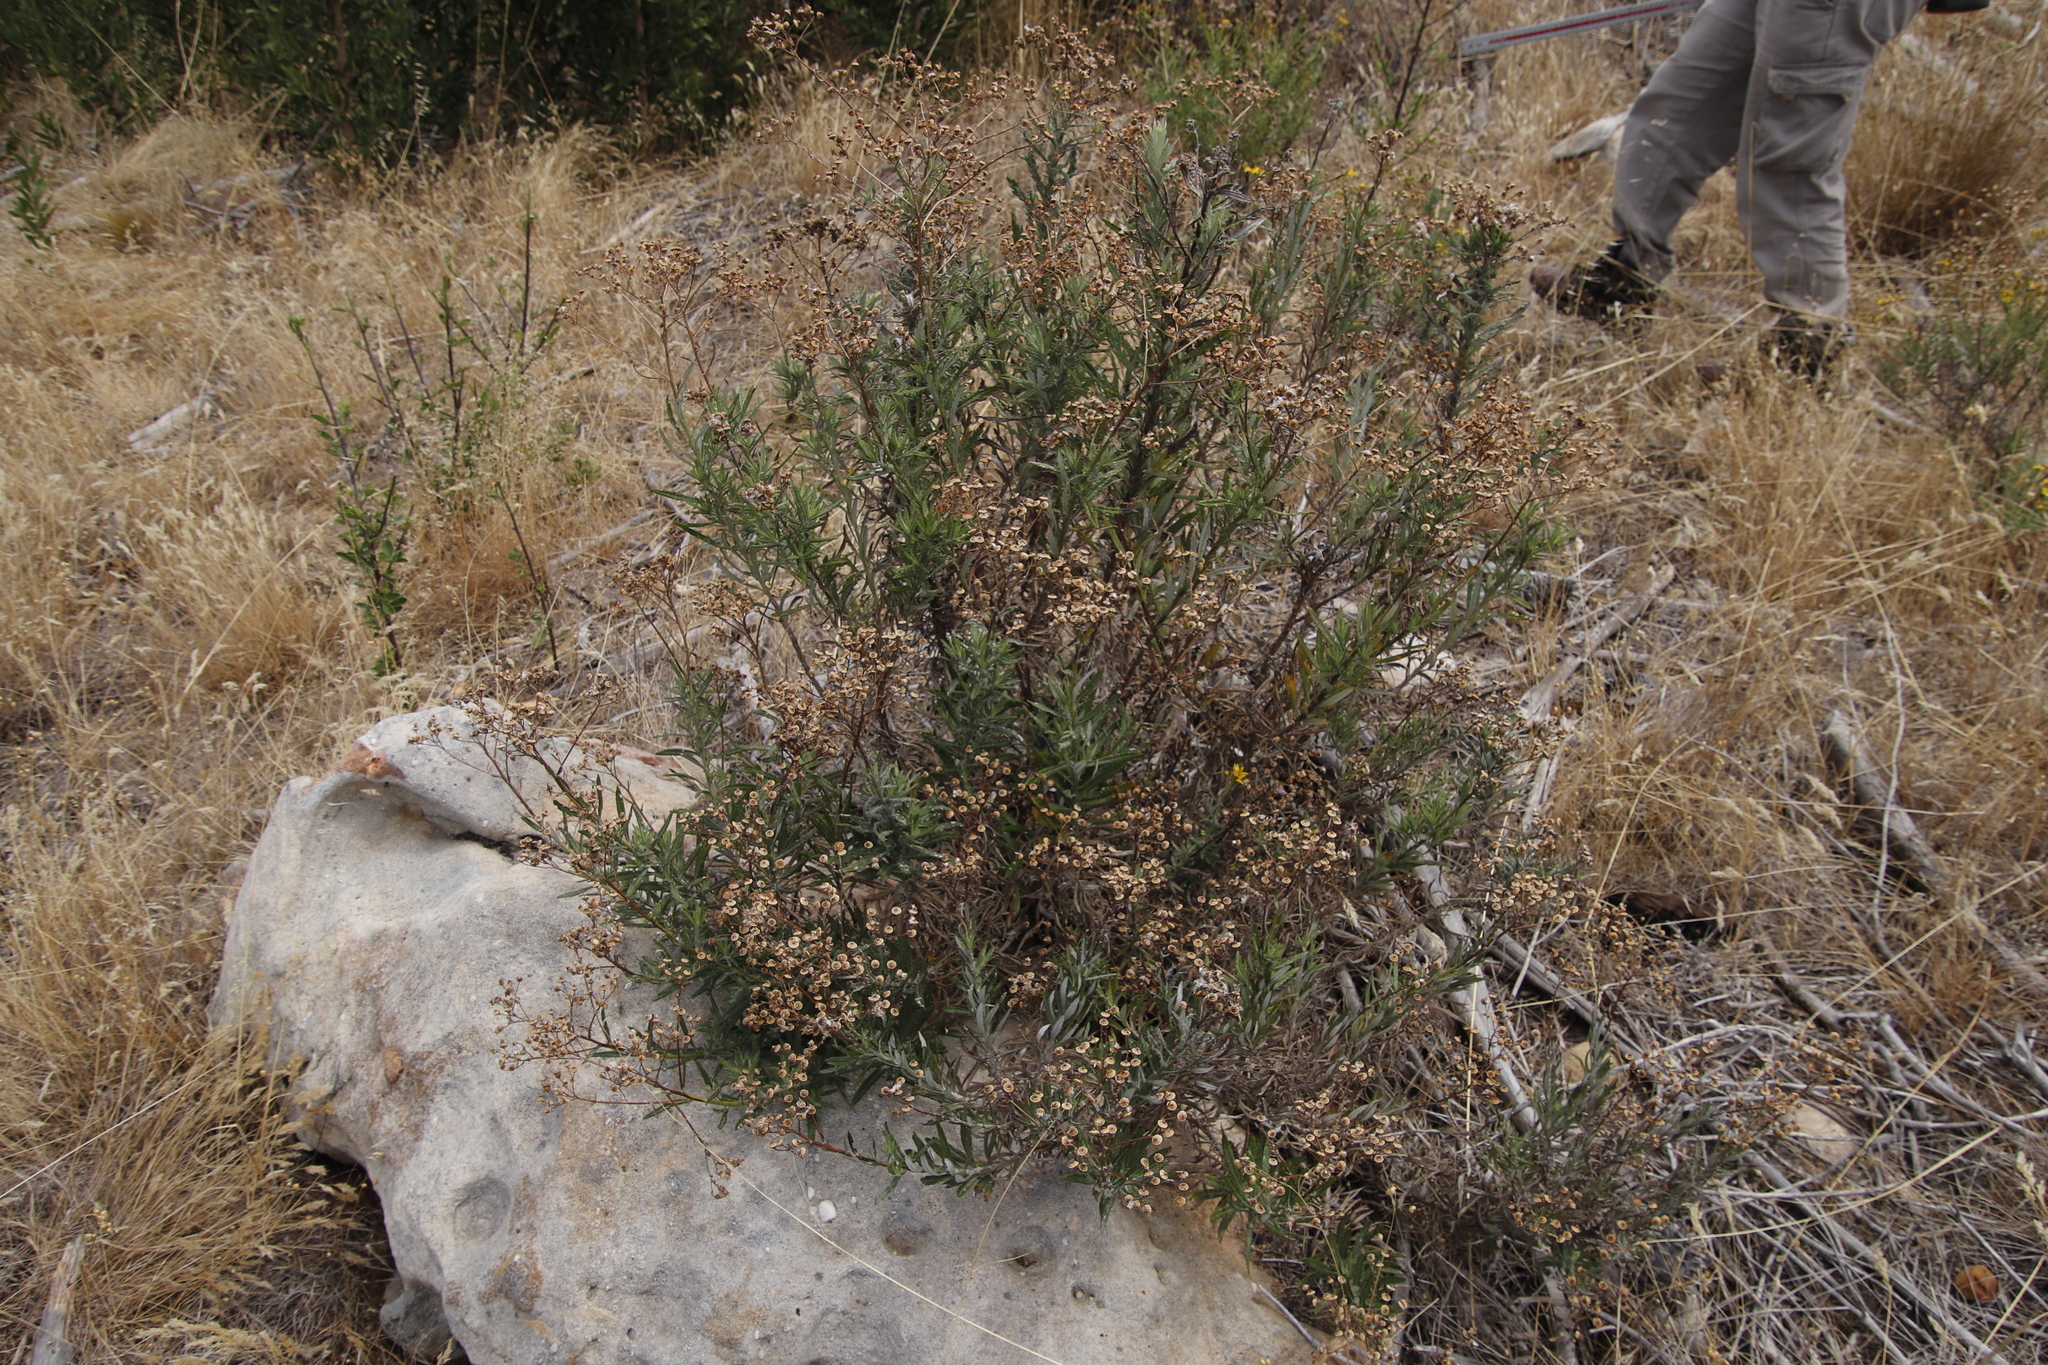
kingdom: Plantae
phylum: Tracheophyta
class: Magnoliopsida
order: Asterales
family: Asteraceae
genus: Senecio
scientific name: Senecio pterophorus
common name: Shoddy ragwort
